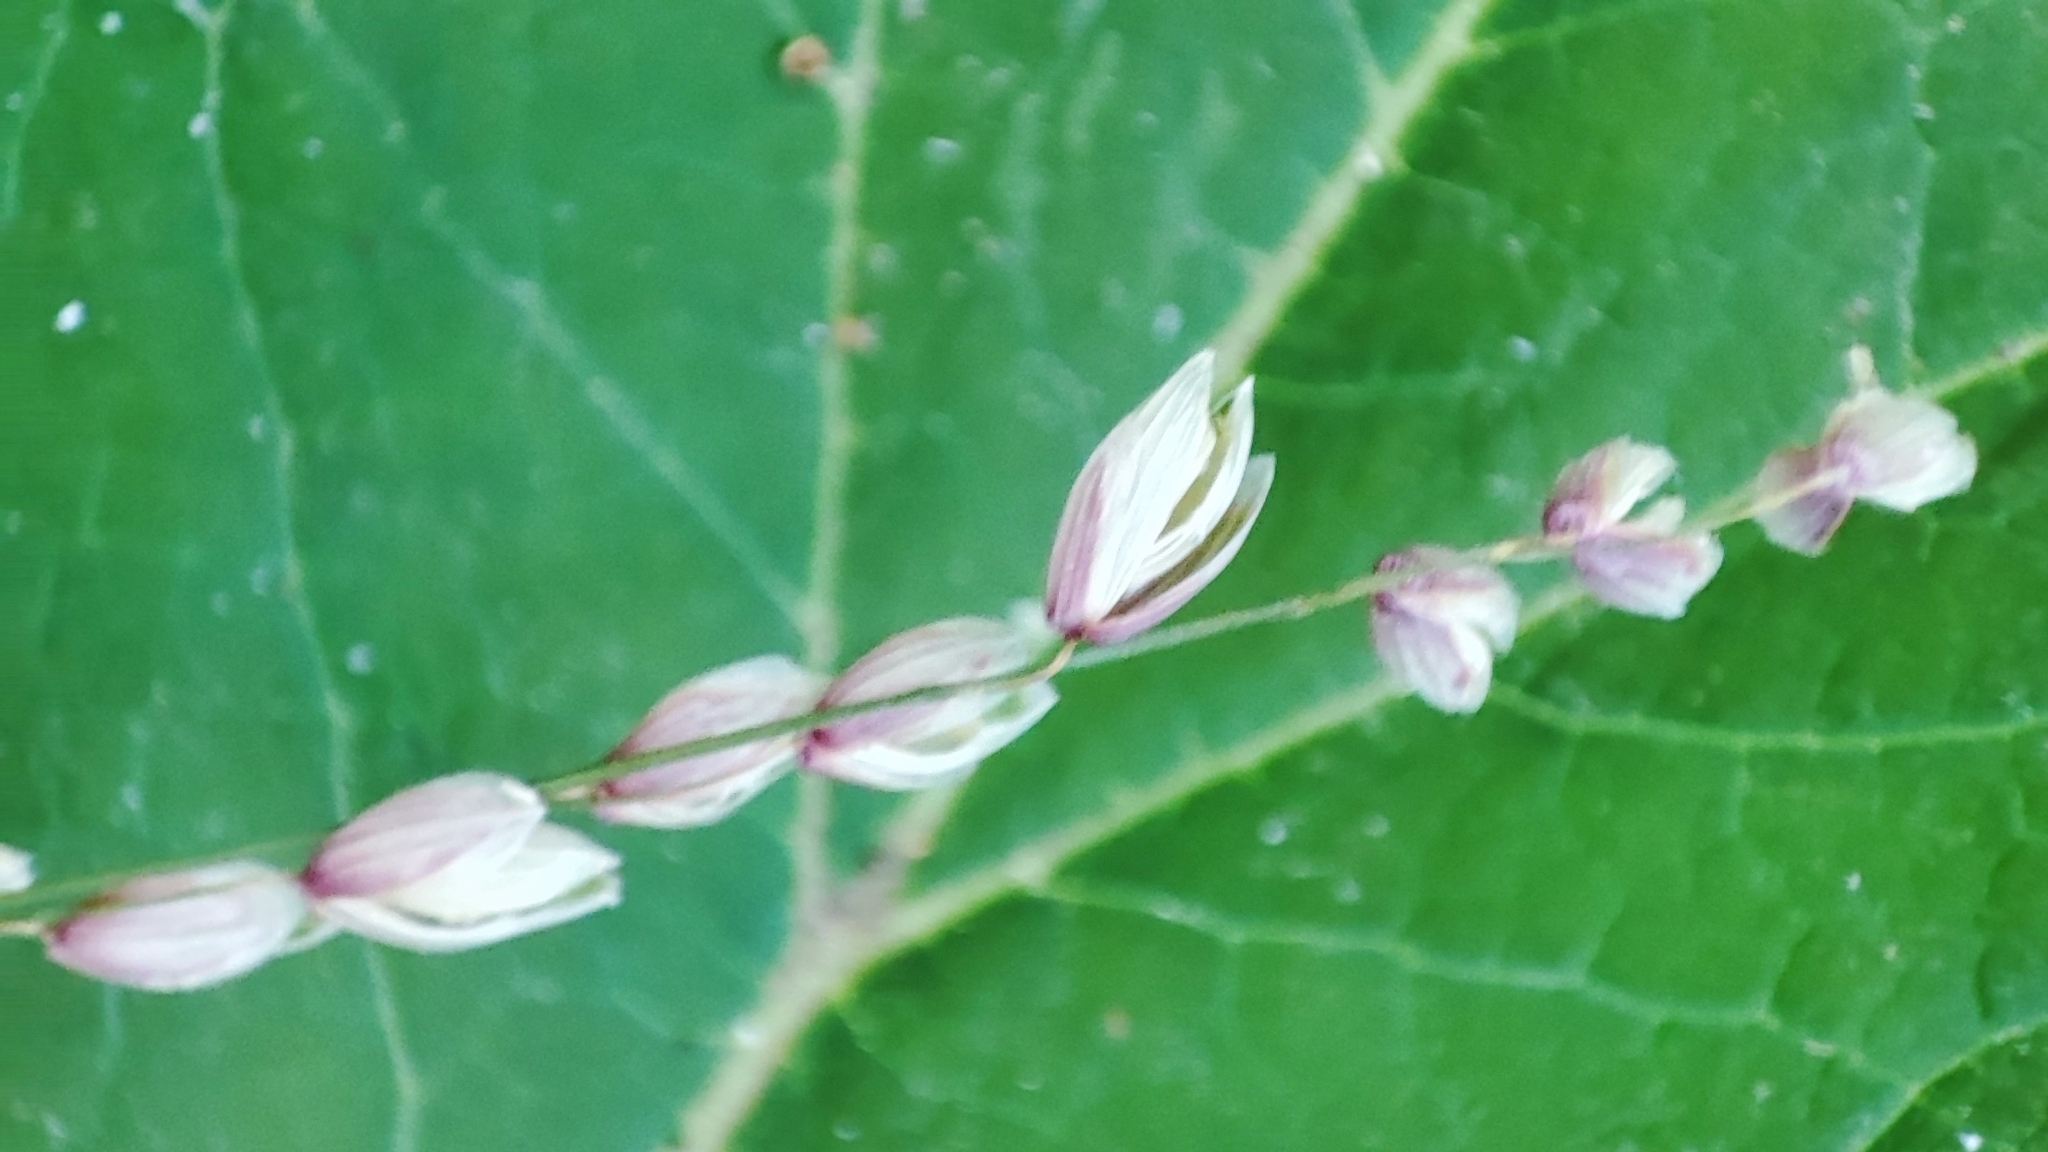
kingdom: Plantae
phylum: Tracheophyta
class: Liliopsida
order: Poales
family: Poaceae
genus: Melica
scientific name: Melica nutans
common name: Mountain melick
